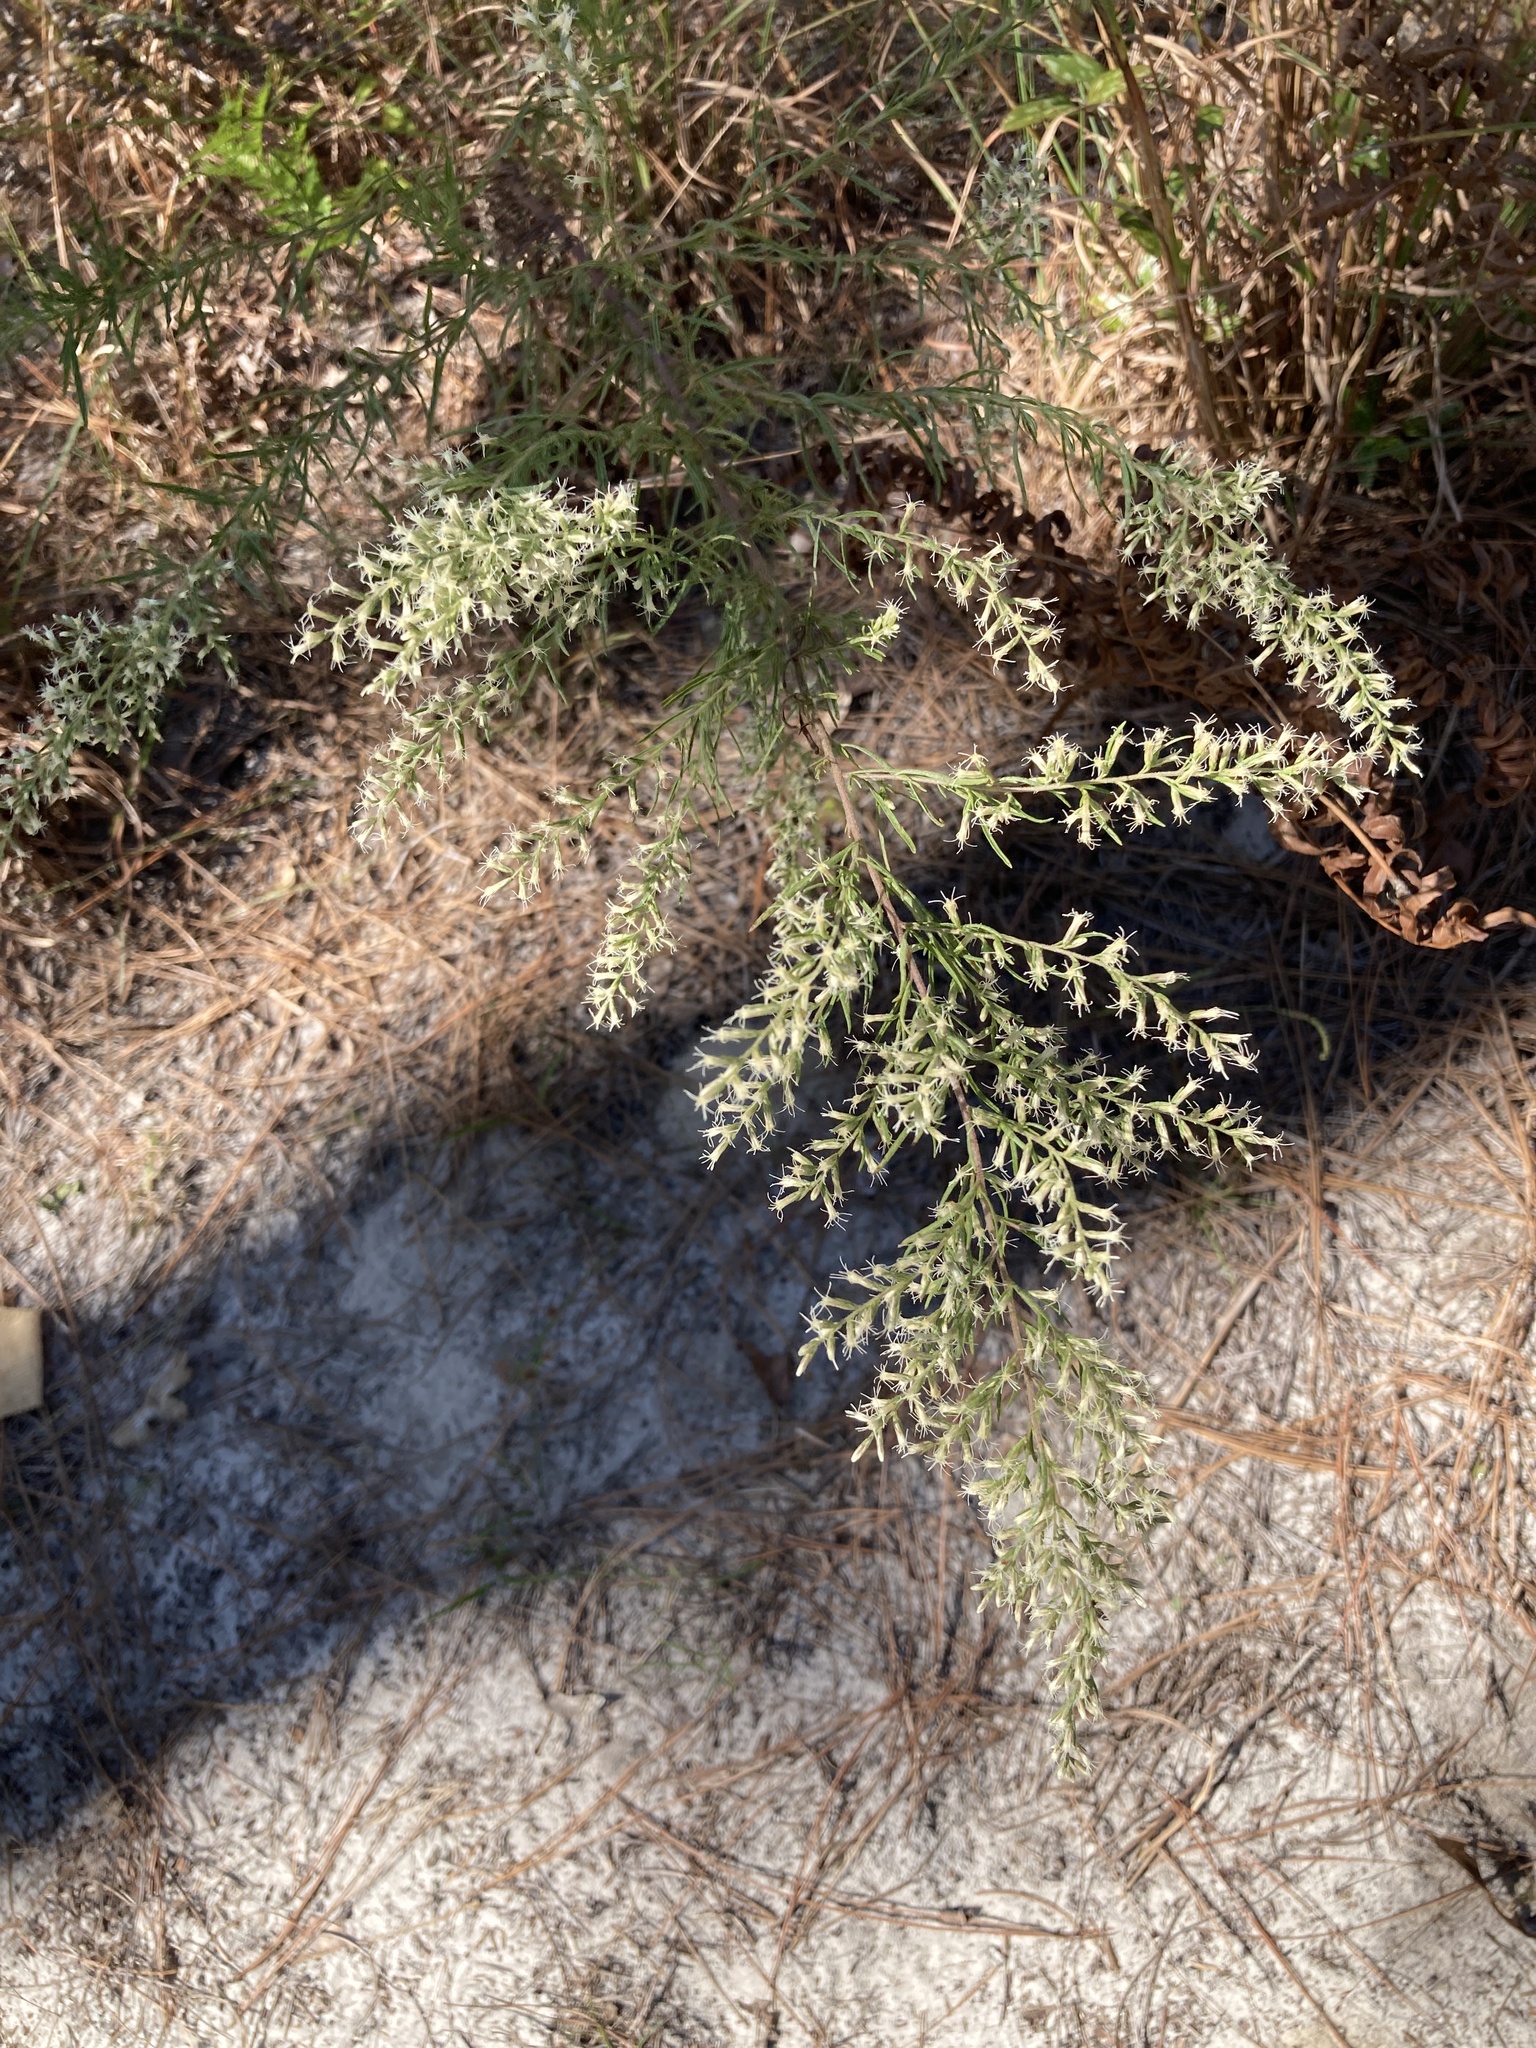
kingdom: Plantae
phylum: Tracheophyta
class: Magnoliopsida
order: Asterales
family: Asteraceae
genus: Eupatorium
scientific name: Eupatorium compositifolium
